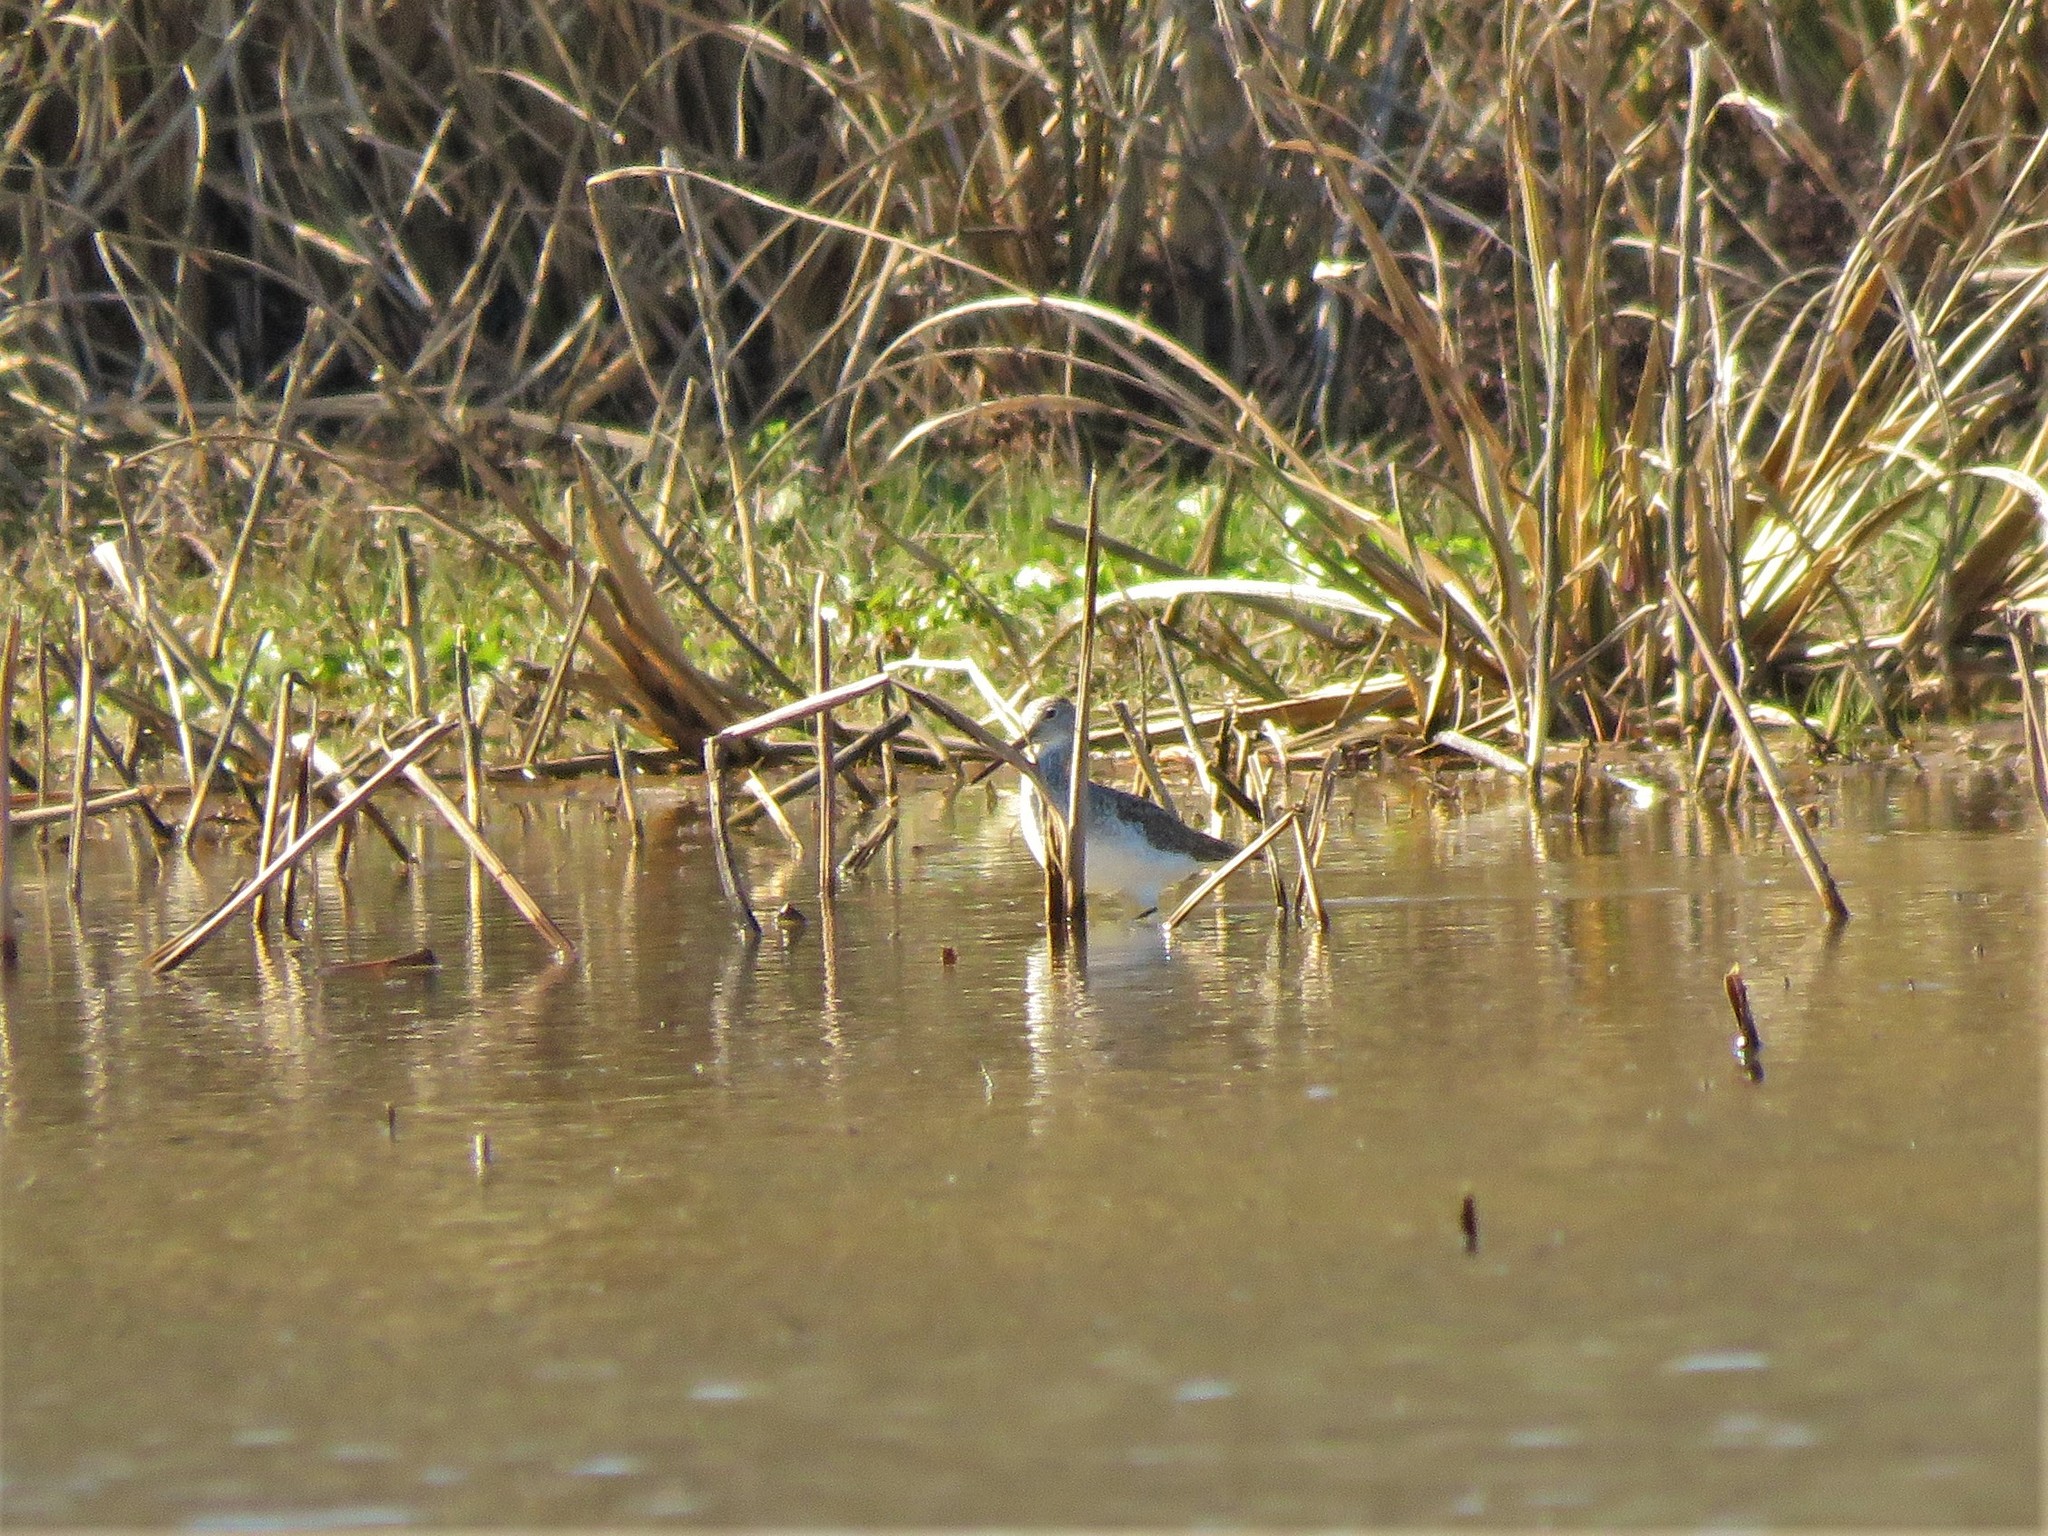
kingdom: Animalia
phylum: Chordata
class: Aves
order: Charadriiformes
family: Scolopacidae
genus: Tringa
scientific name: Tringa melanoleuca
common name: Greater yellowlegs
